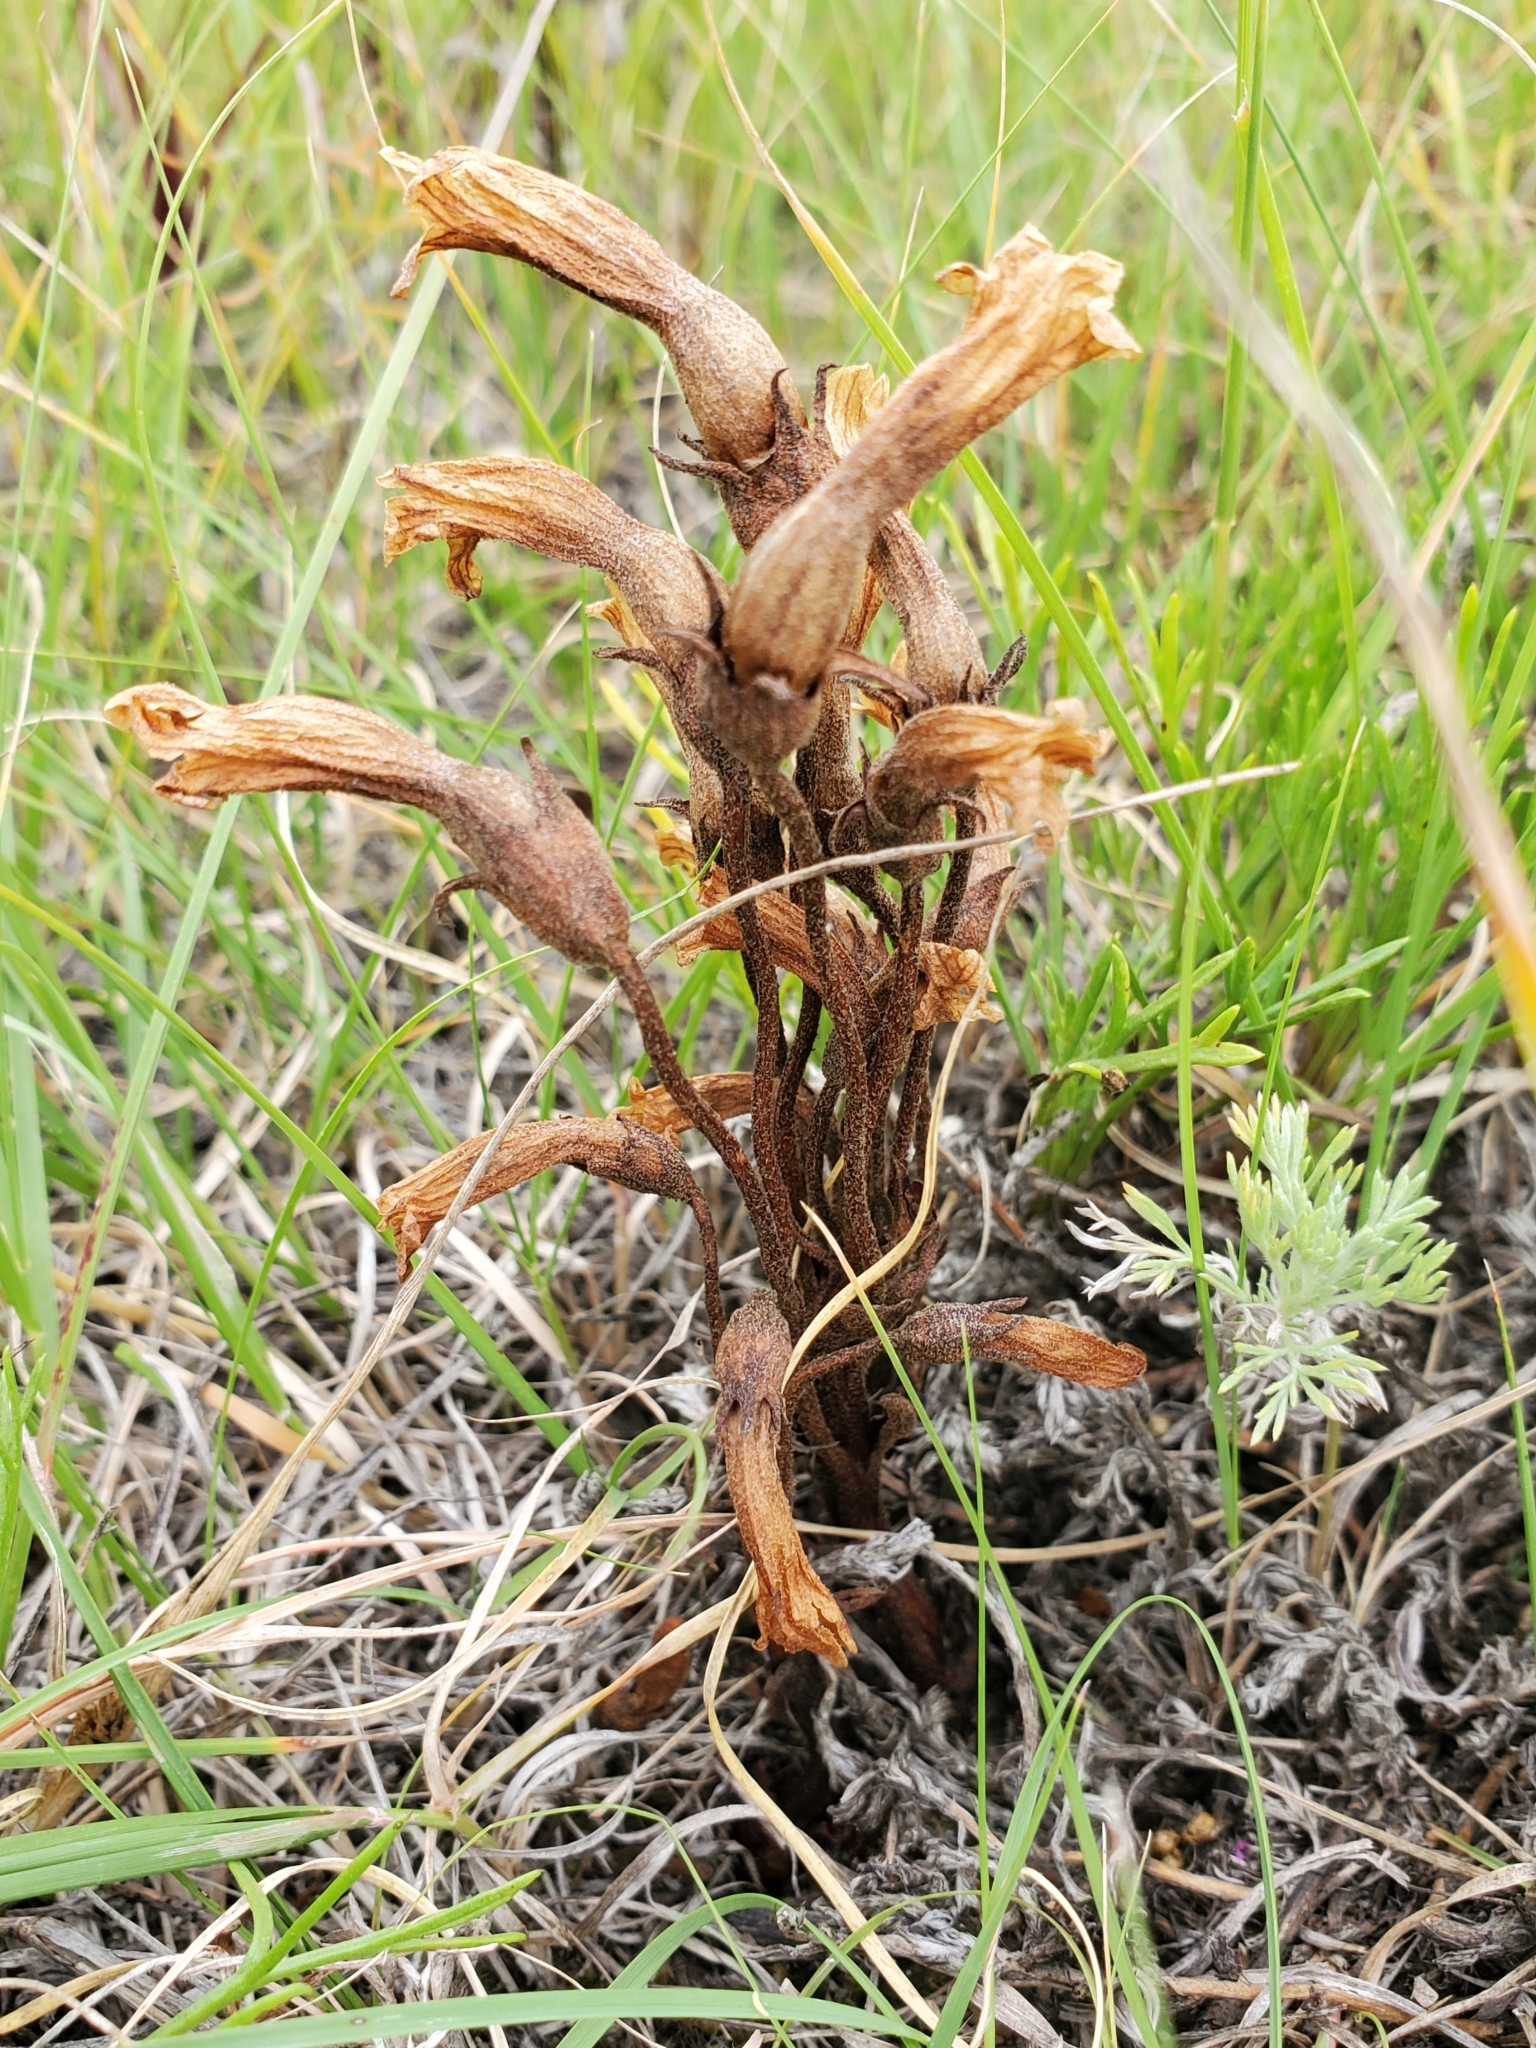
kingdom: Plantae
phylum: Tracheophyta
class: Magnoliopsida
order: Lamiales
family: Orobanchaceae
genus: Aphyllon
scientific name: Aphyllon fasciculatum
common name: Clustered broomrape
